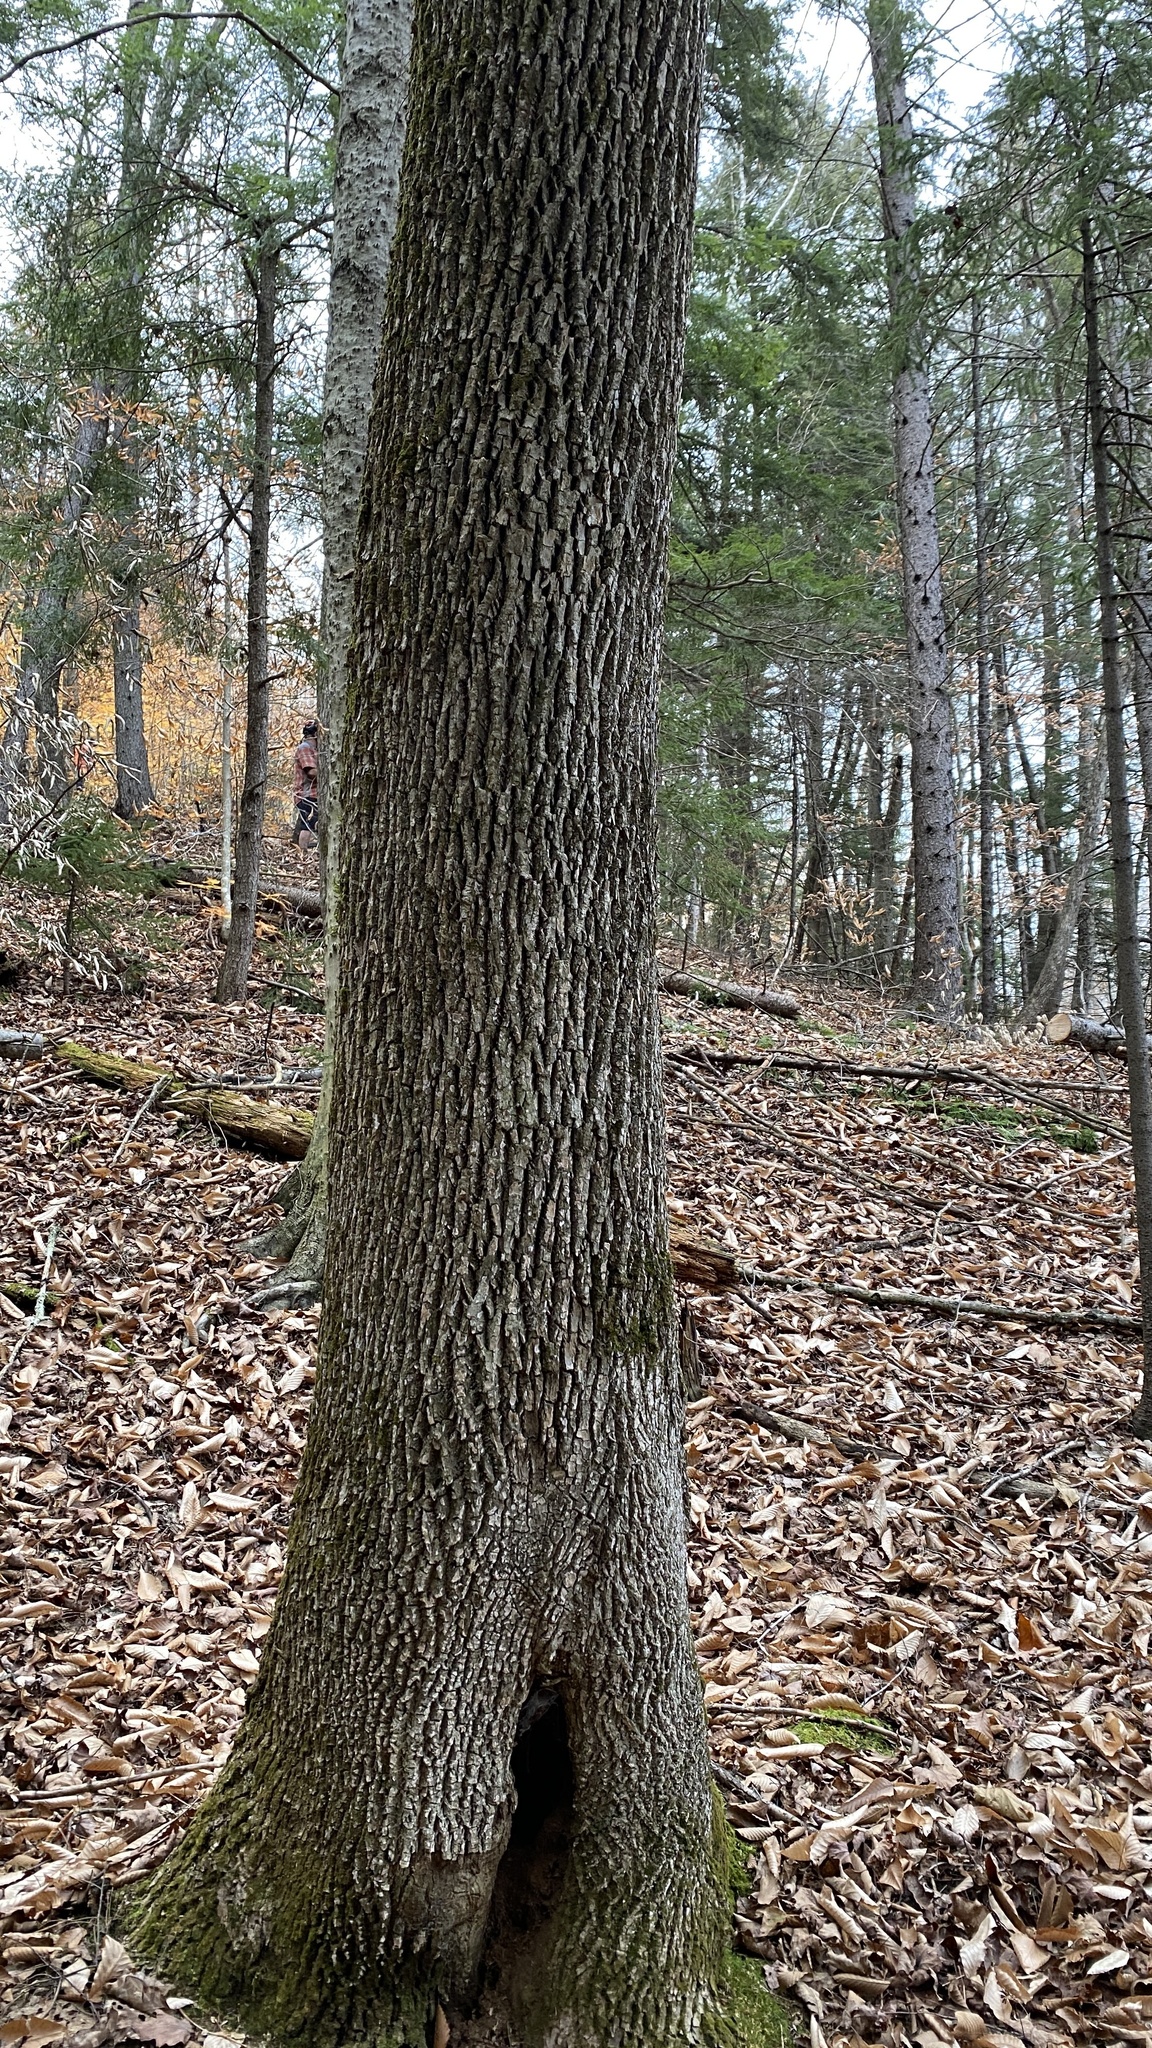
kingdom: Plantae
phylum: Tracheophyta
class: Magnoliopsida
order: Lamiales
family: Oleaceae
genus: Fraxinus
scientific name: Fraxinus americana
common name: White ash
